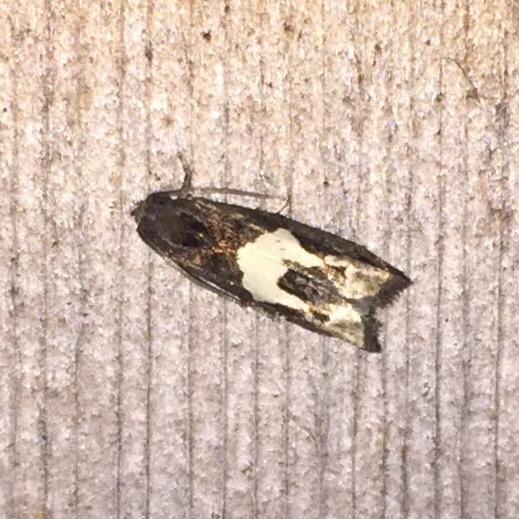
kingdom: Animalia
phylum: Arthropoda
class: Insecta
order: Lepidoptera
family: Tortricidae
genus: Epiblema
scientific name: Epiblema otiosana
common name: Bidens borer moth
